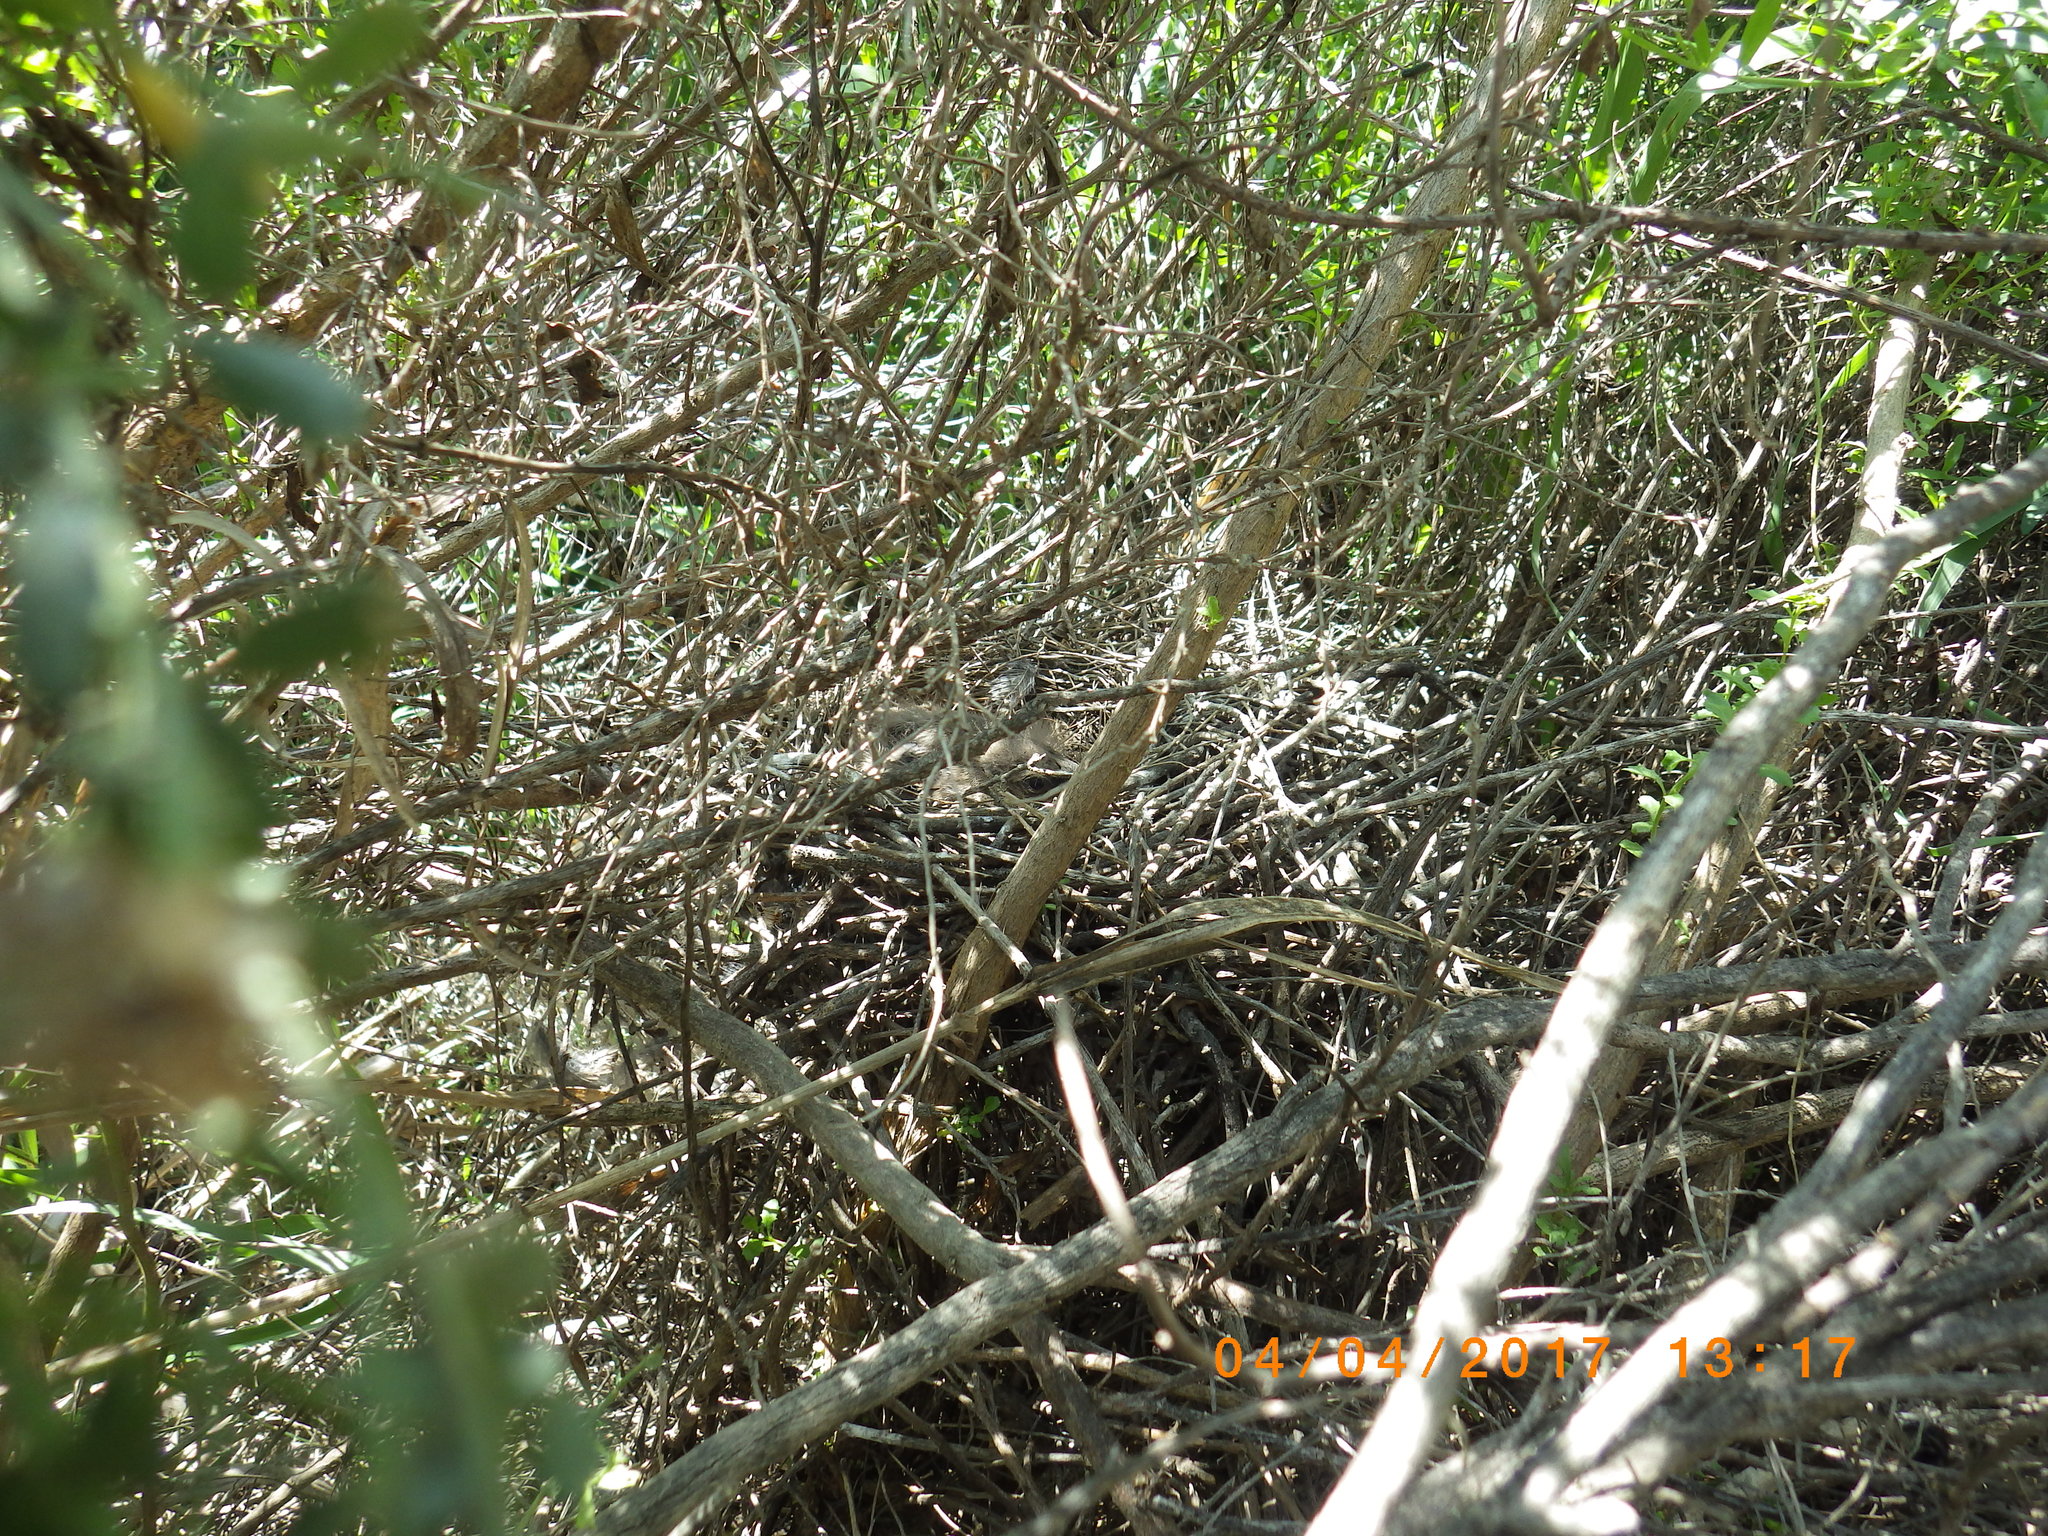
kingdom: Animalia
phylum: Chordata
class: Aves
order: Passeriformes
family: Mimidae
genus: Toxostoma
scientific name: Toxostoma redivivum
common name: California thrasher
